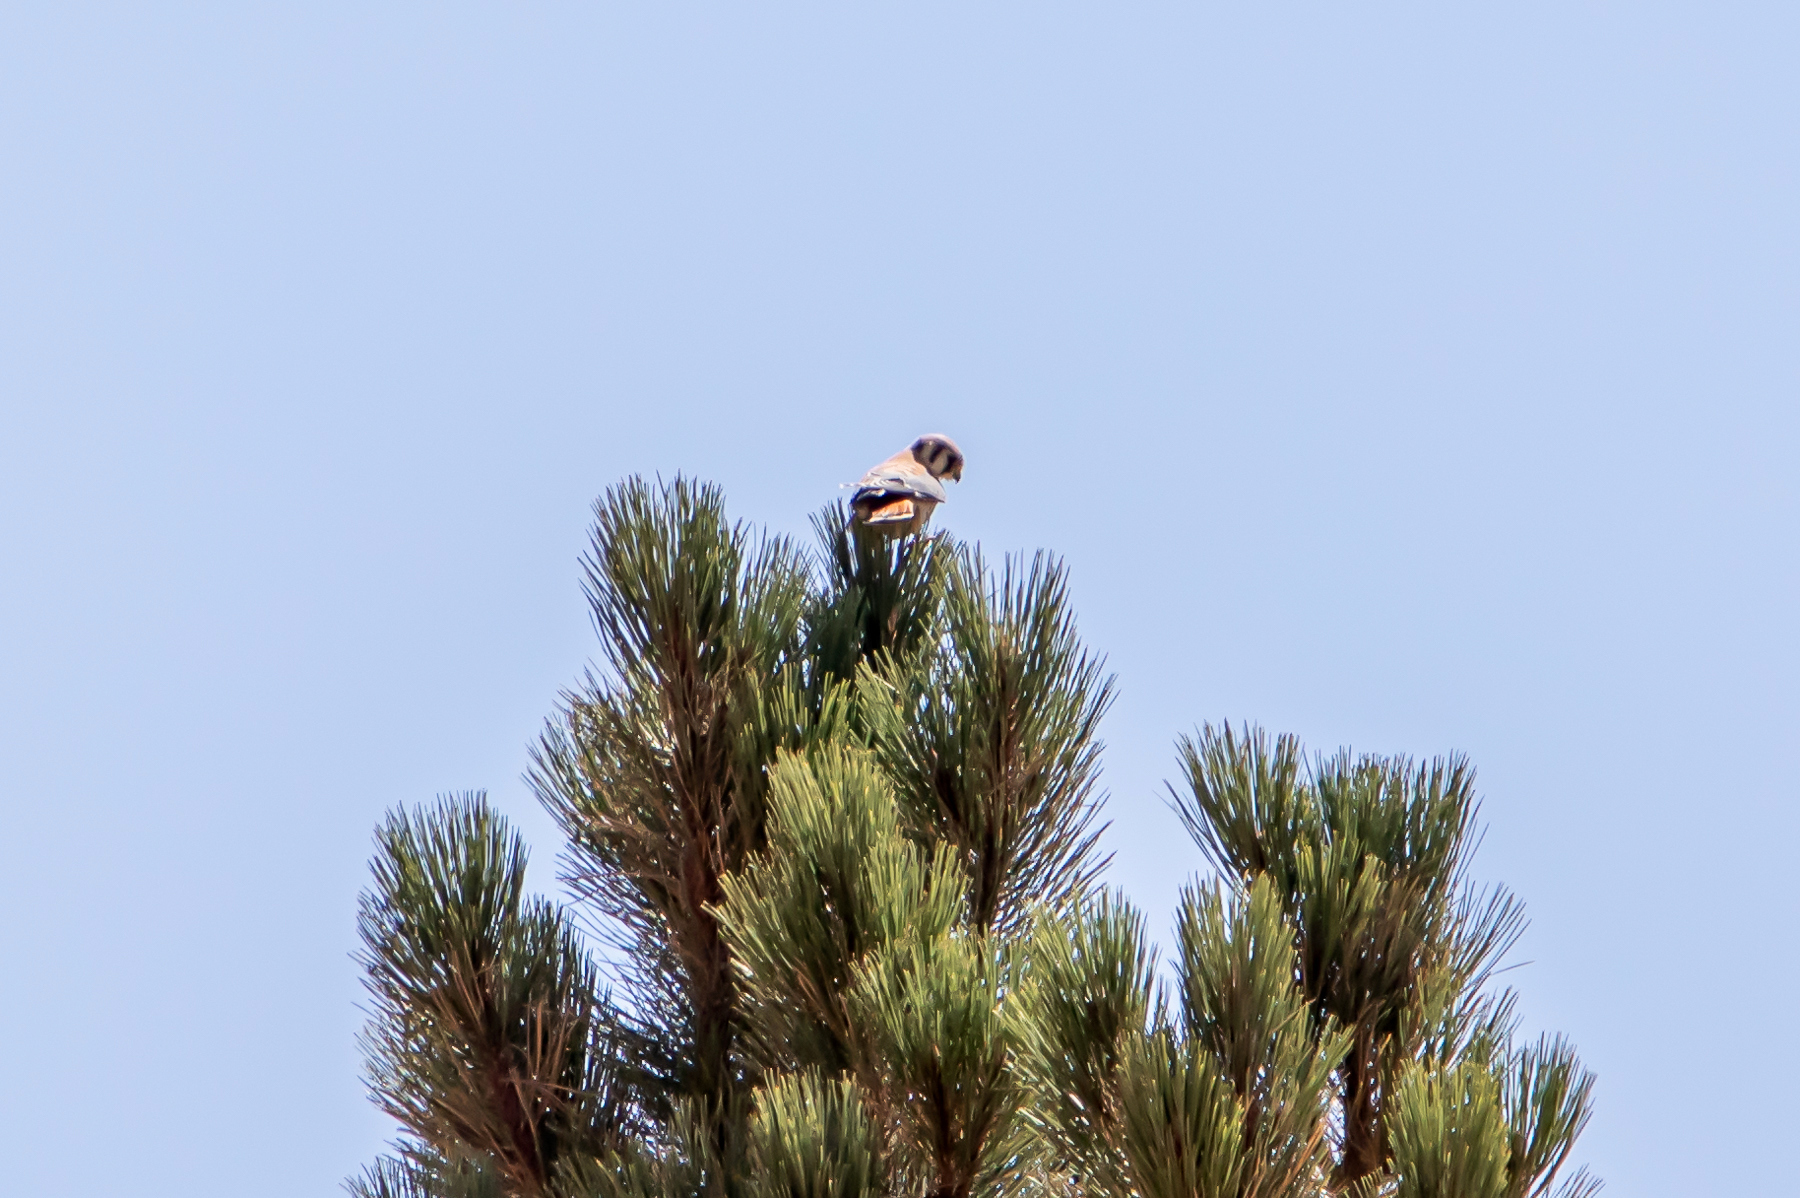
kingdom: Animalia
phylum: Chordata
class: Aves
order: Falconiformes
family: Falconidae
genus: Falco
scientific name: Falco sparverius
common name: American kestrel
